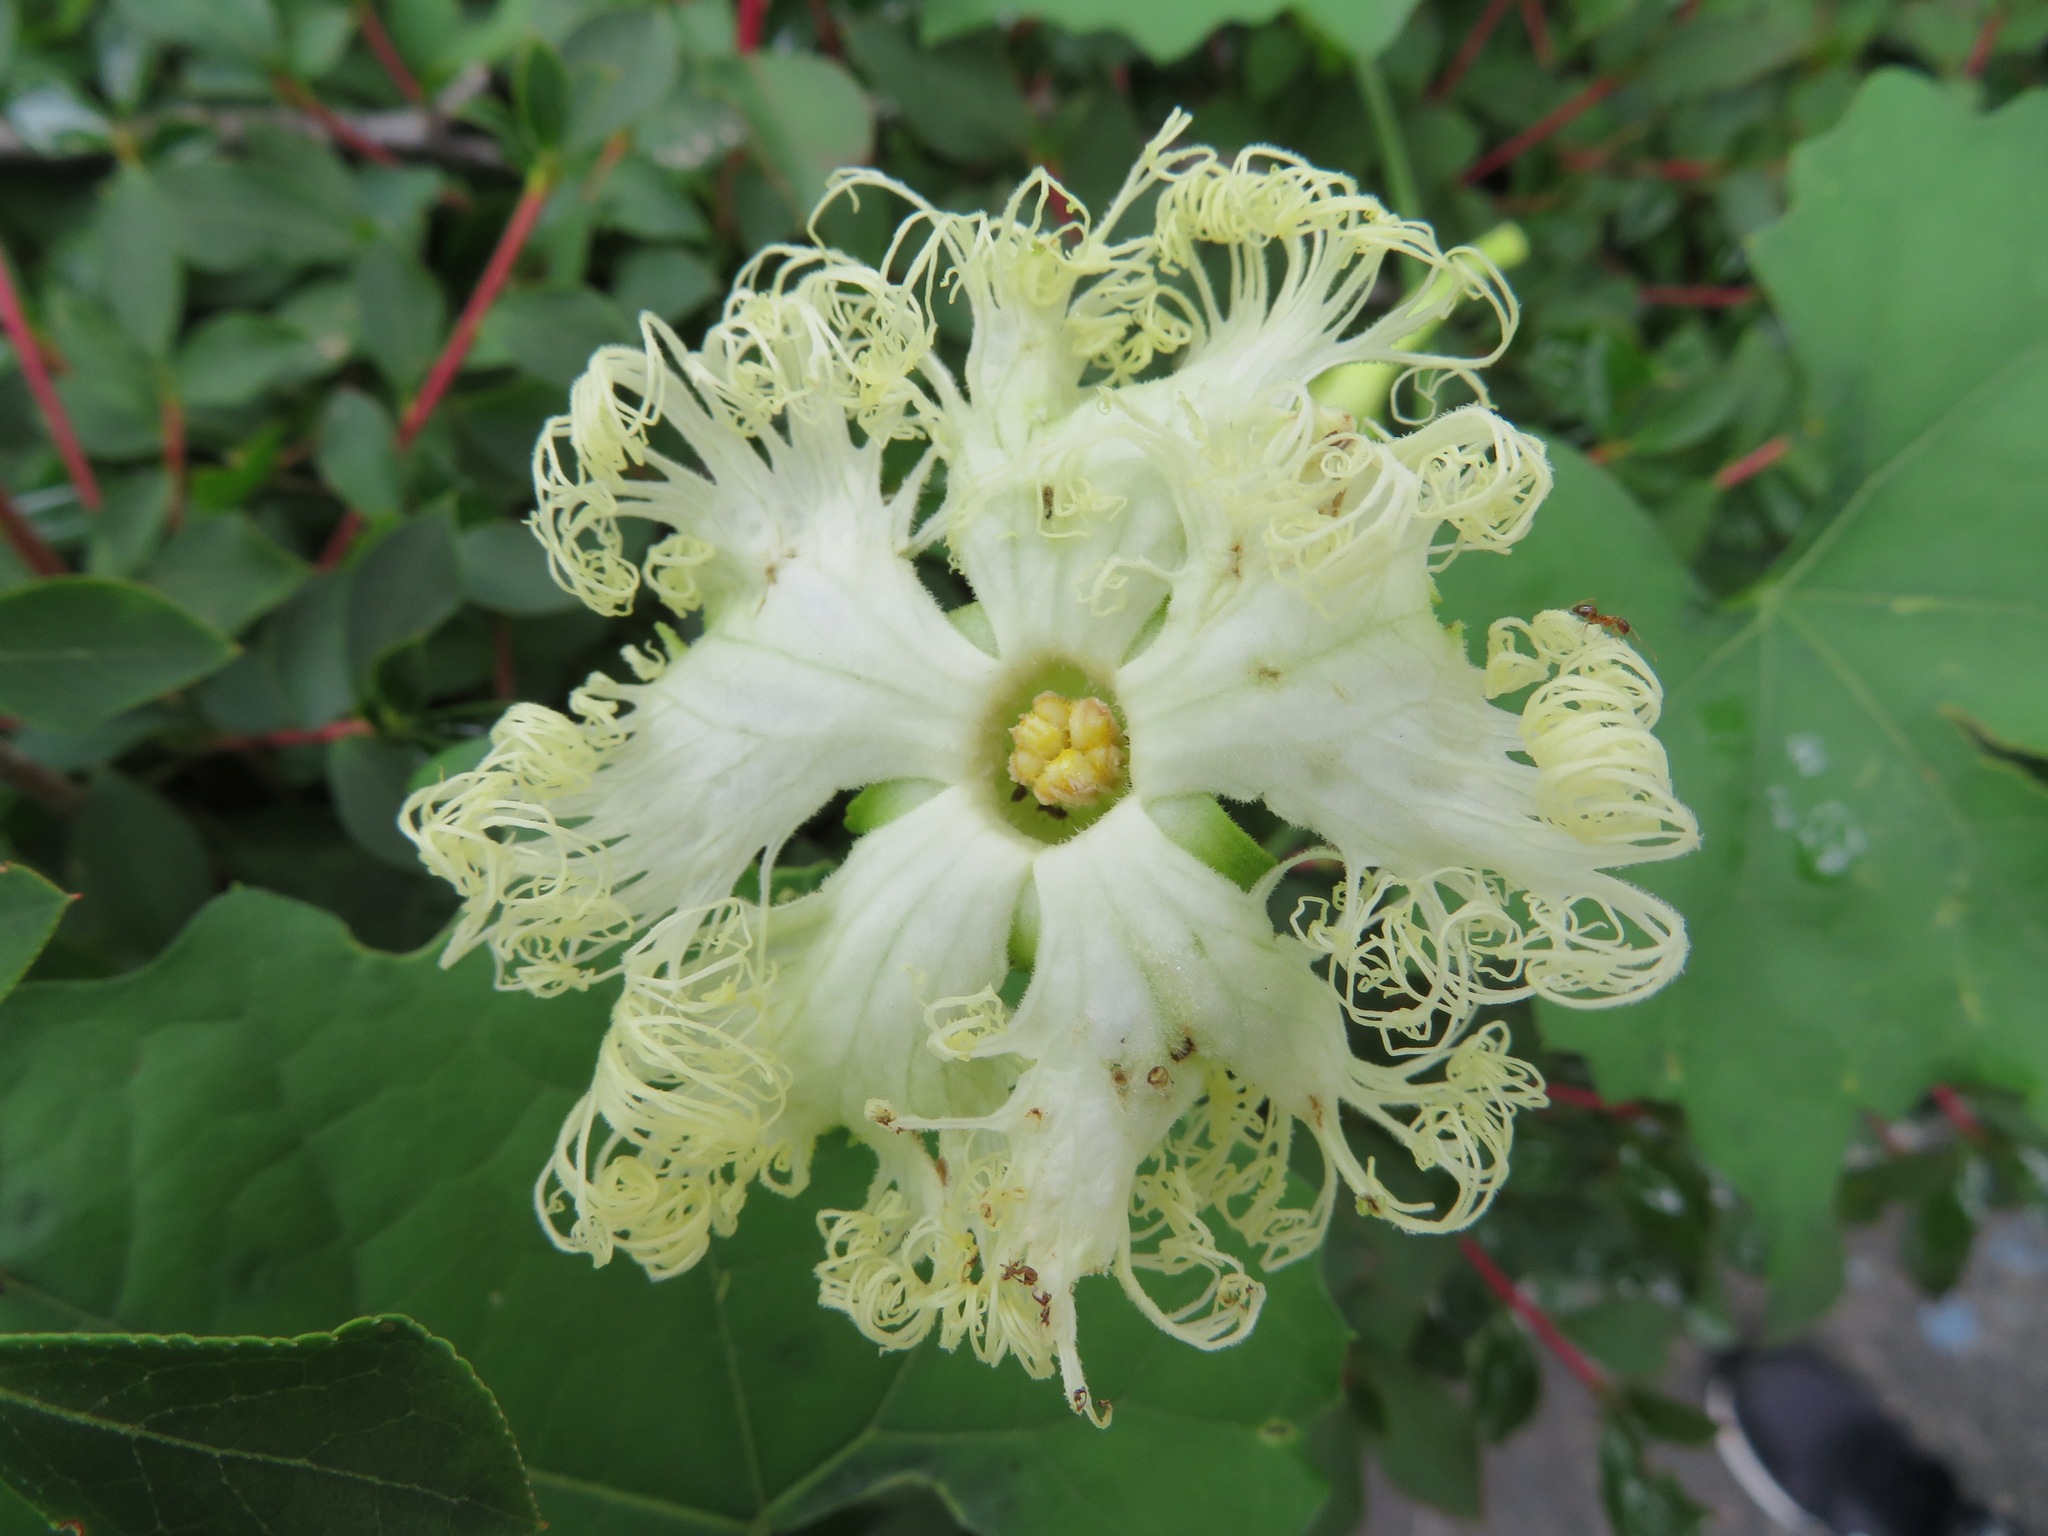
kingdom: Plantae
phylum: Tracheophyta
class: Magnoliopsida
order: Cucurbitales
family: Cucurbitaceae
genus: Trichosanthes
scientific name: Trichosanthes kirilowii
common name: Chinese-cucumber
